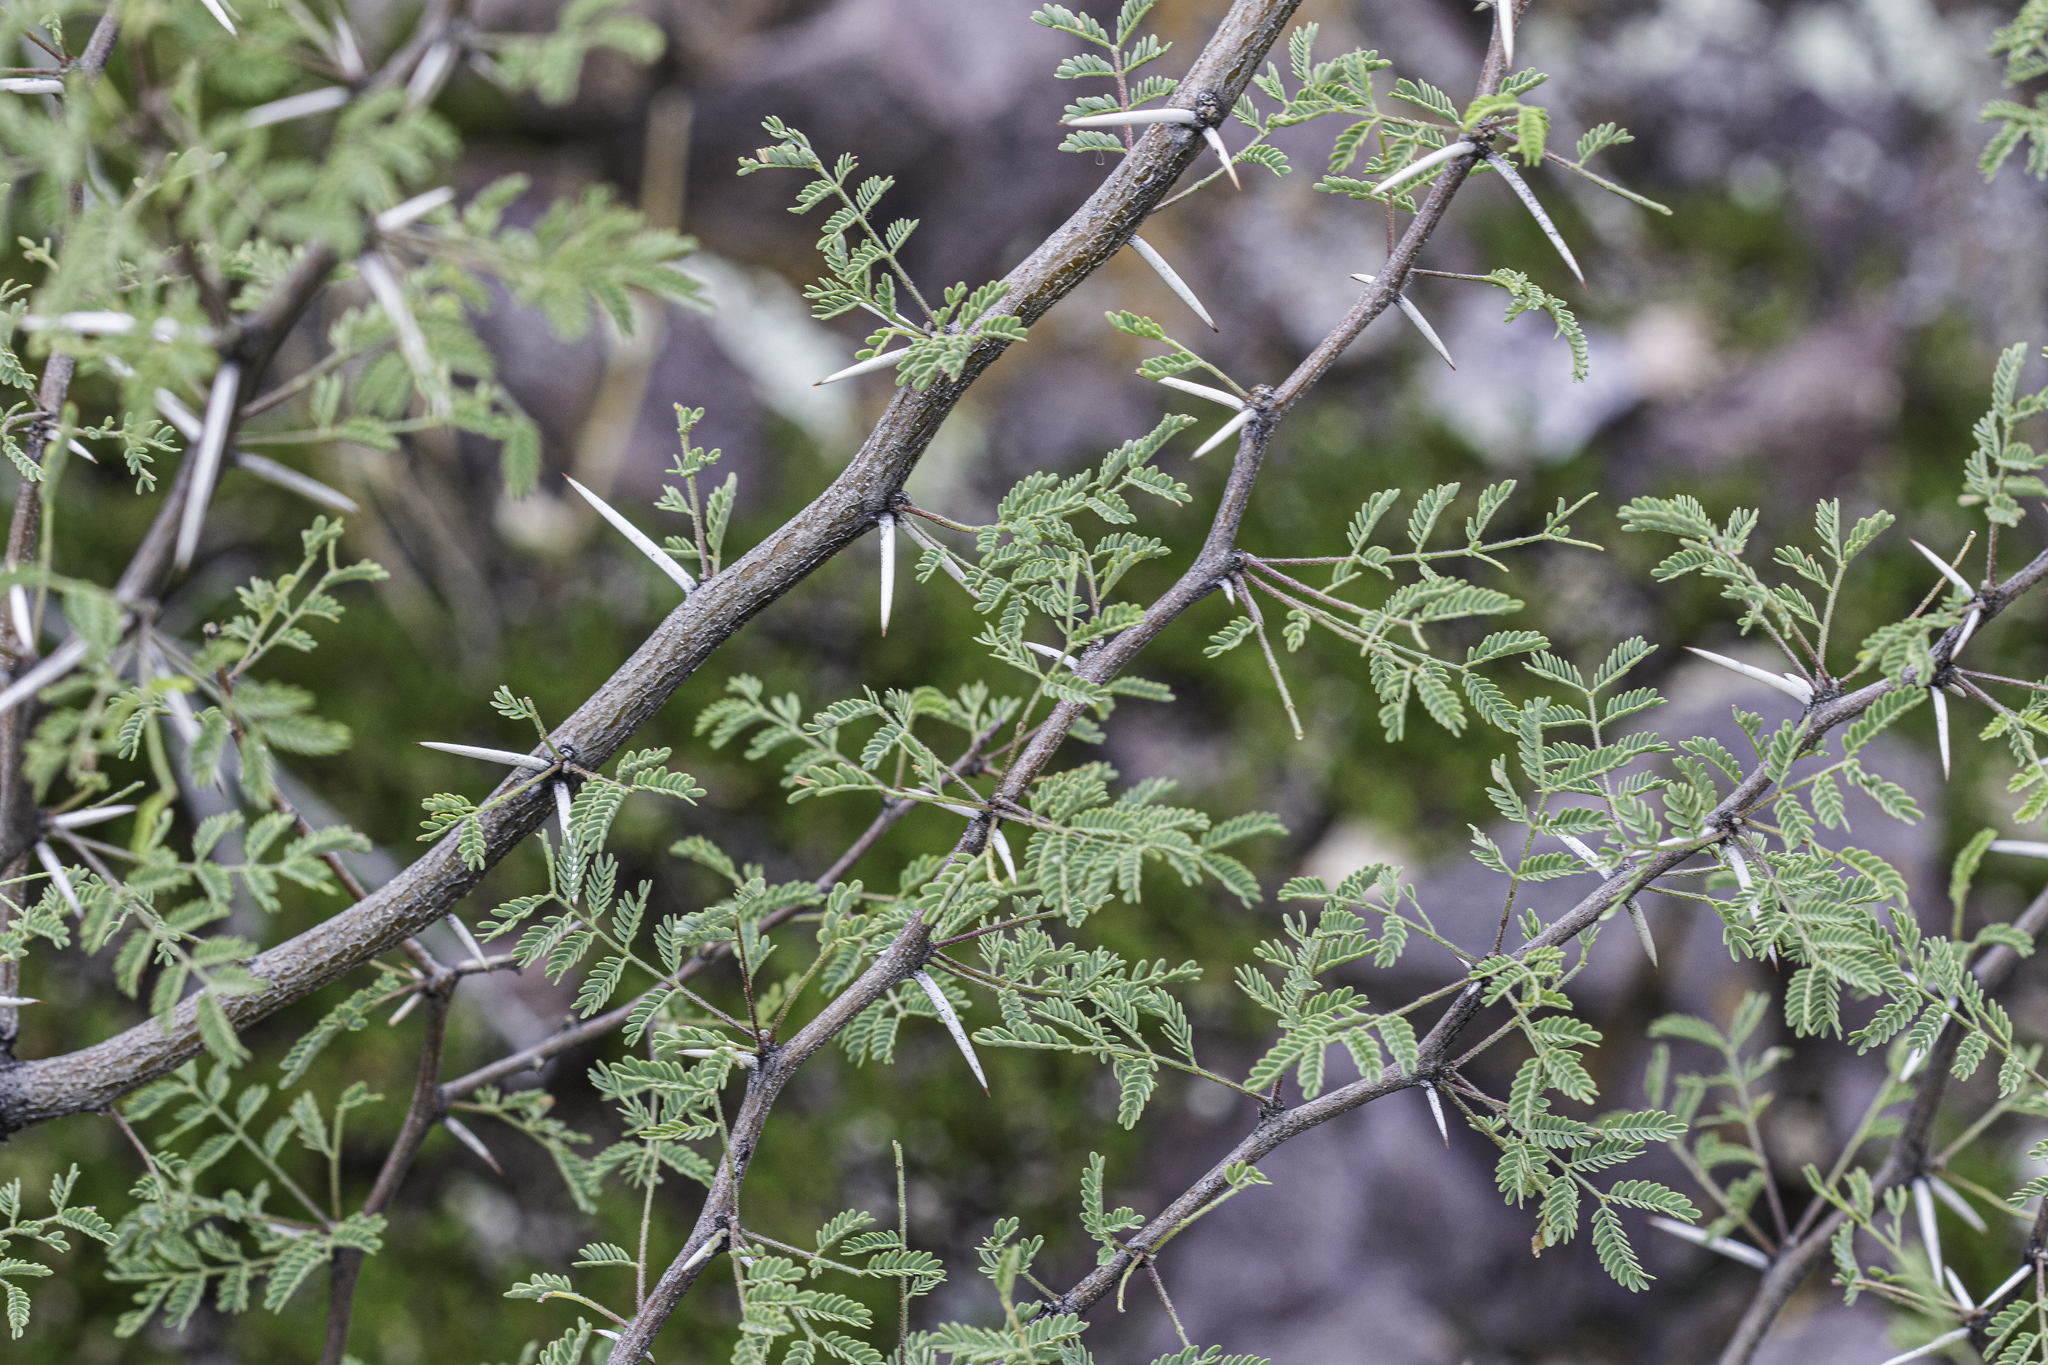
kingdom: Plantae
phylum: Tracheophyta
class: Magnoliopsida
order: Fabales
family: Fabaceae
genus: Vachellia
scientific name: Vachellia constricta
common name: Mescat acacia
